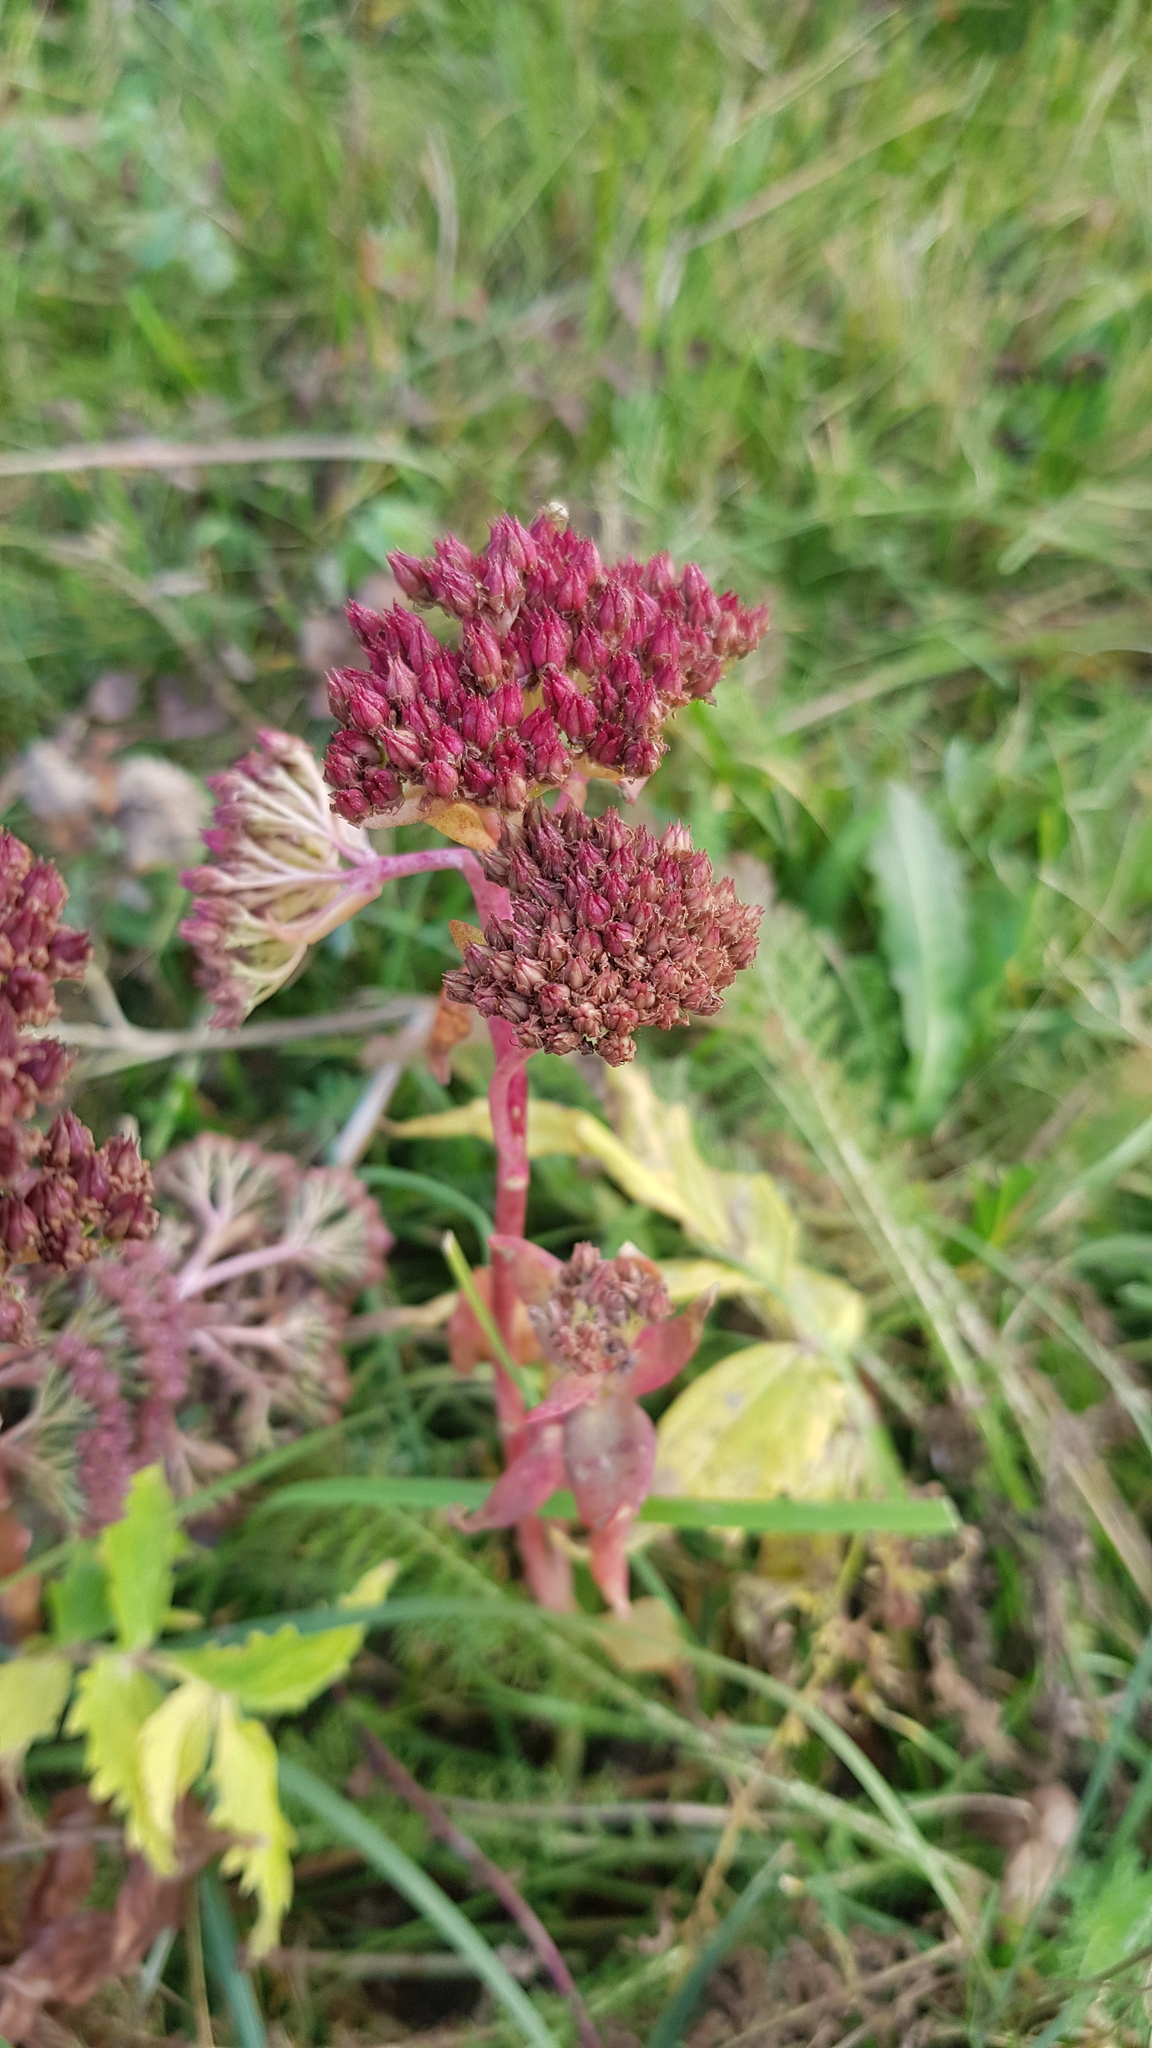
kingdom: Plantae
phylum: Tracheophyta
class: Magnoliopsida
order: Saxifragales
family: Crassulaceae
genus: Hylotelephium
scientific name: Hylotelephium telephium
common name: Live-forever
